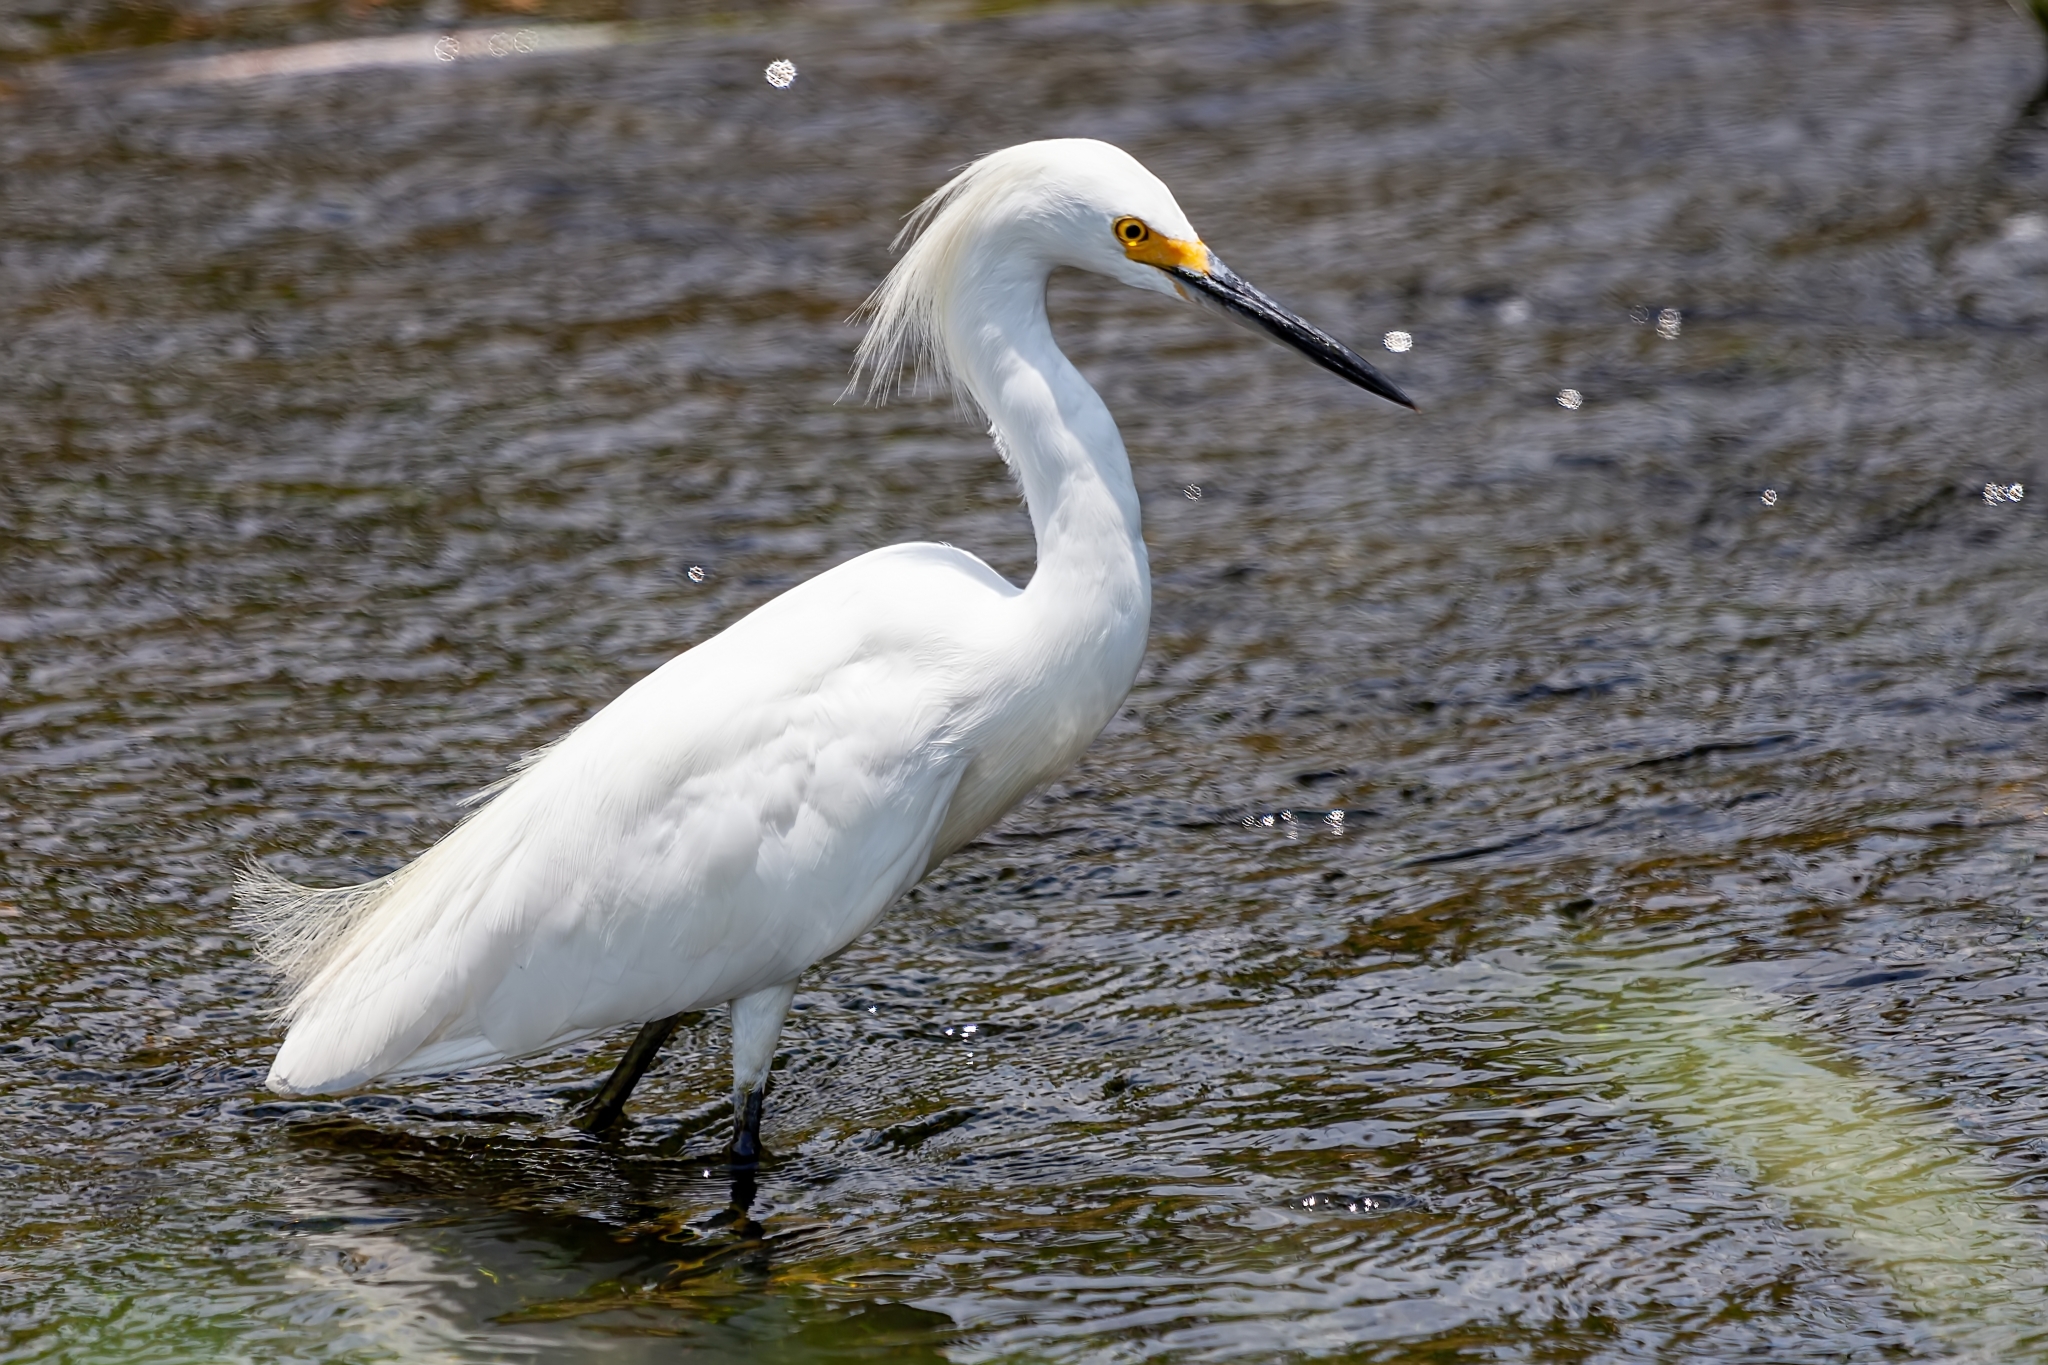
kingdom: Animalia
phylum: Chordata
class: Aves
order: Pelecaniformes
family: Ardeidae
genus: Egretta
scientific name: Egretta thula
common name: Snowy egret
